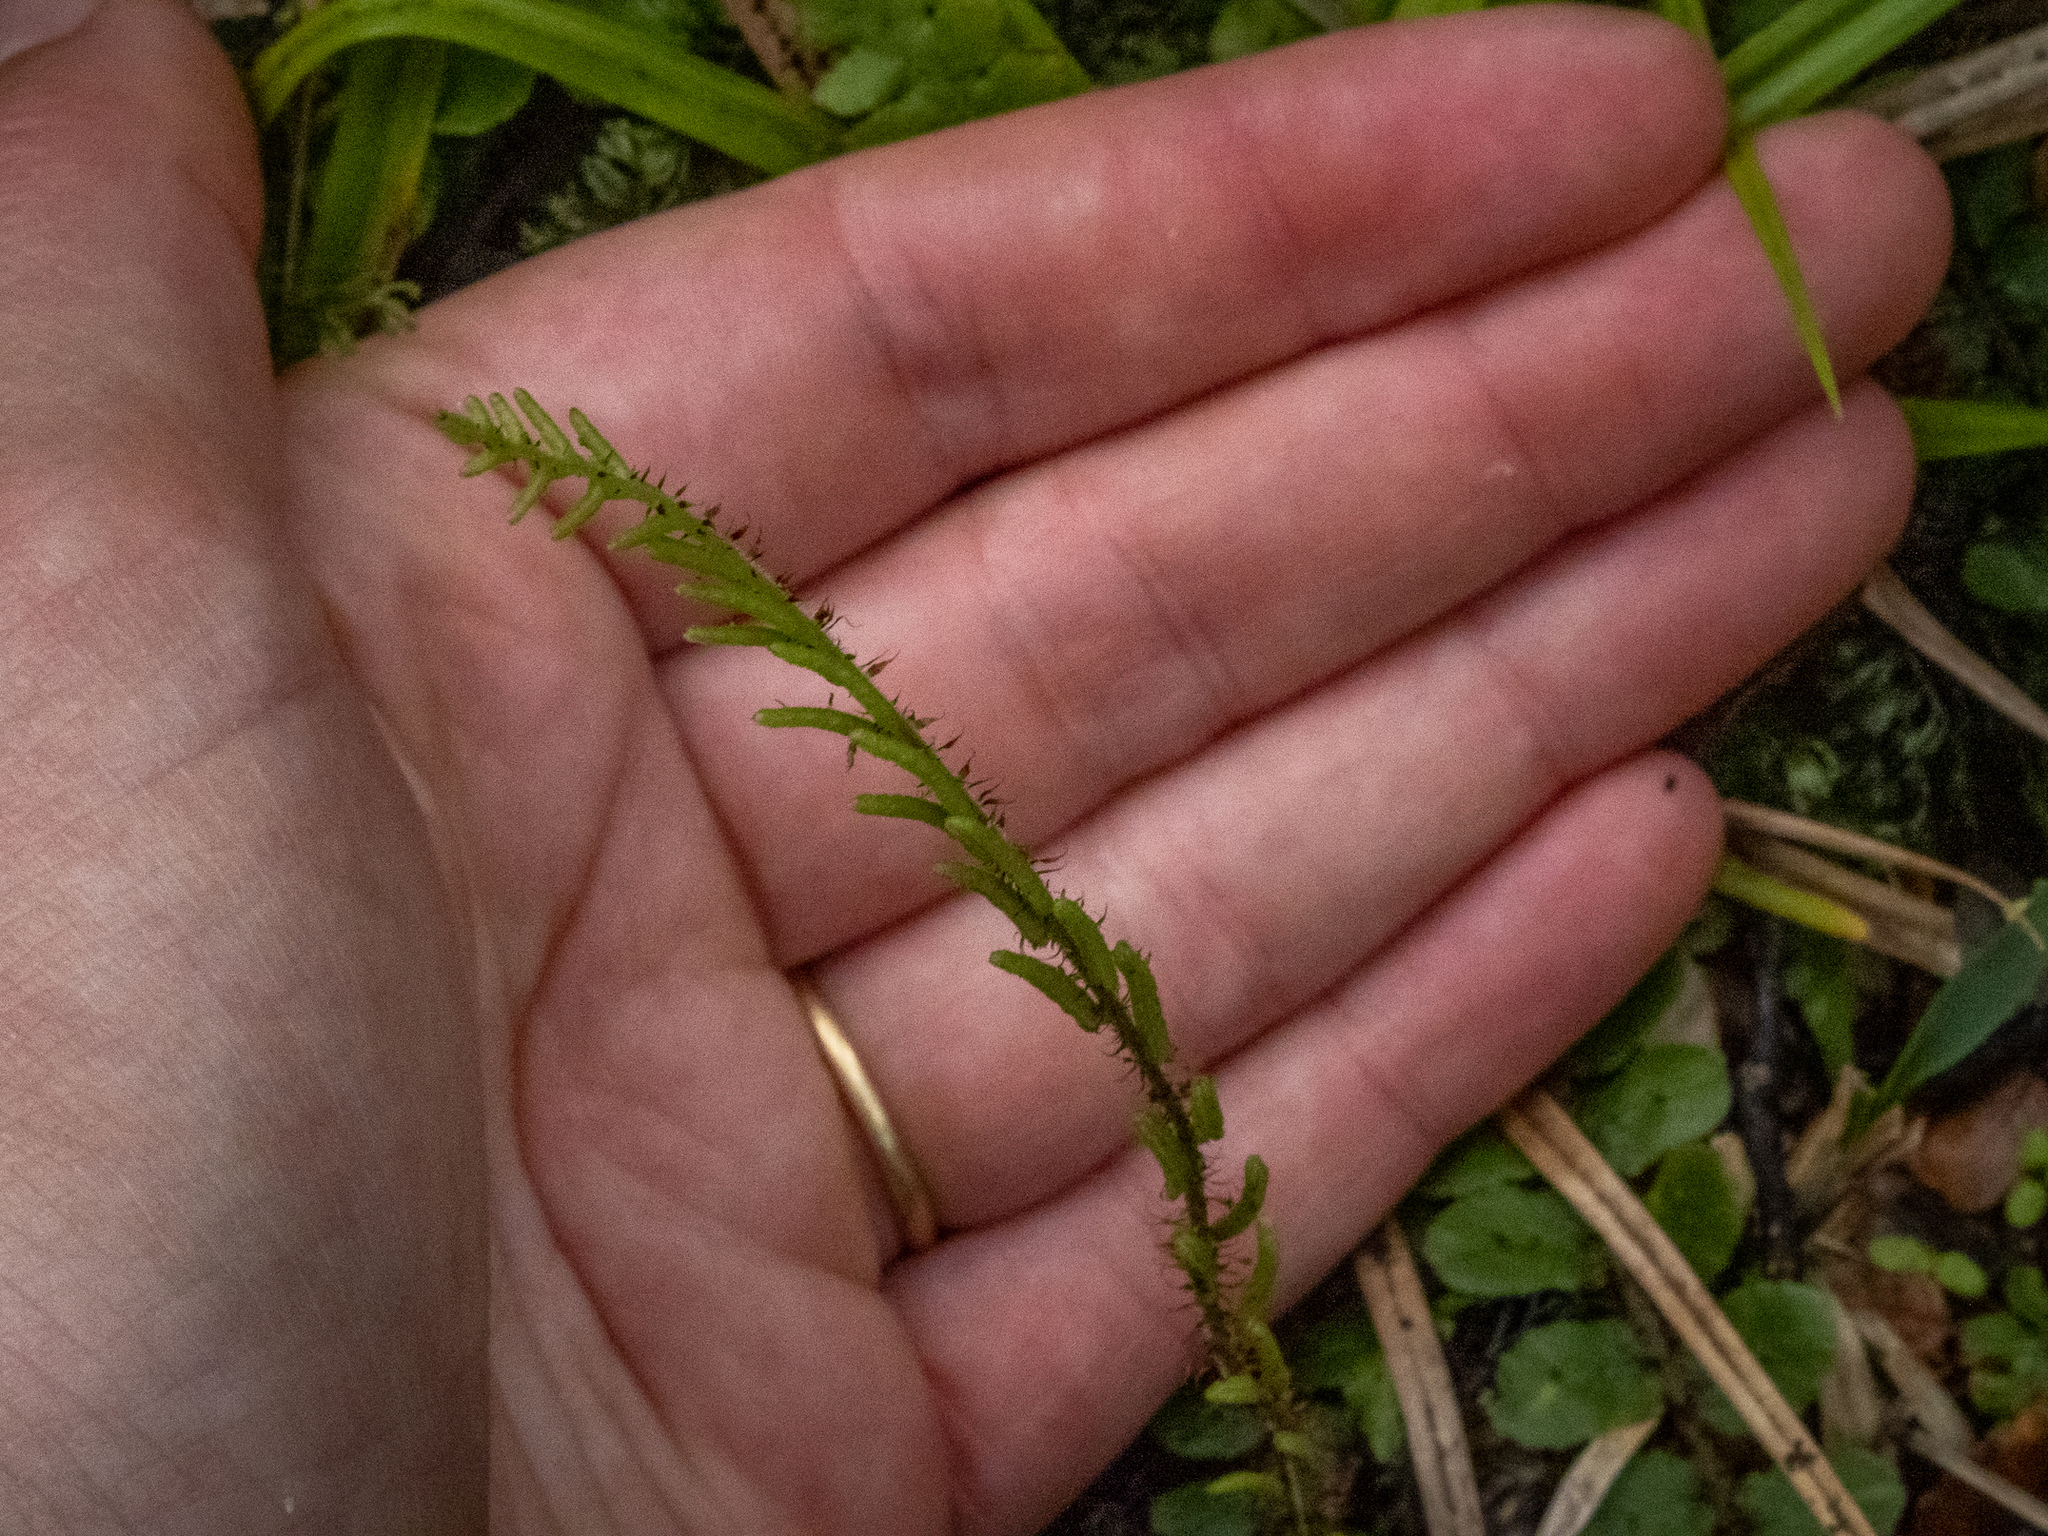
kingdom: Plantae
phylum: Tracheophyta
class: Polypodiopsida
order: Polypodiales
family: Blechnaceae
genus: Cranfillia
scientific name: Cranfillia fluviatilis
